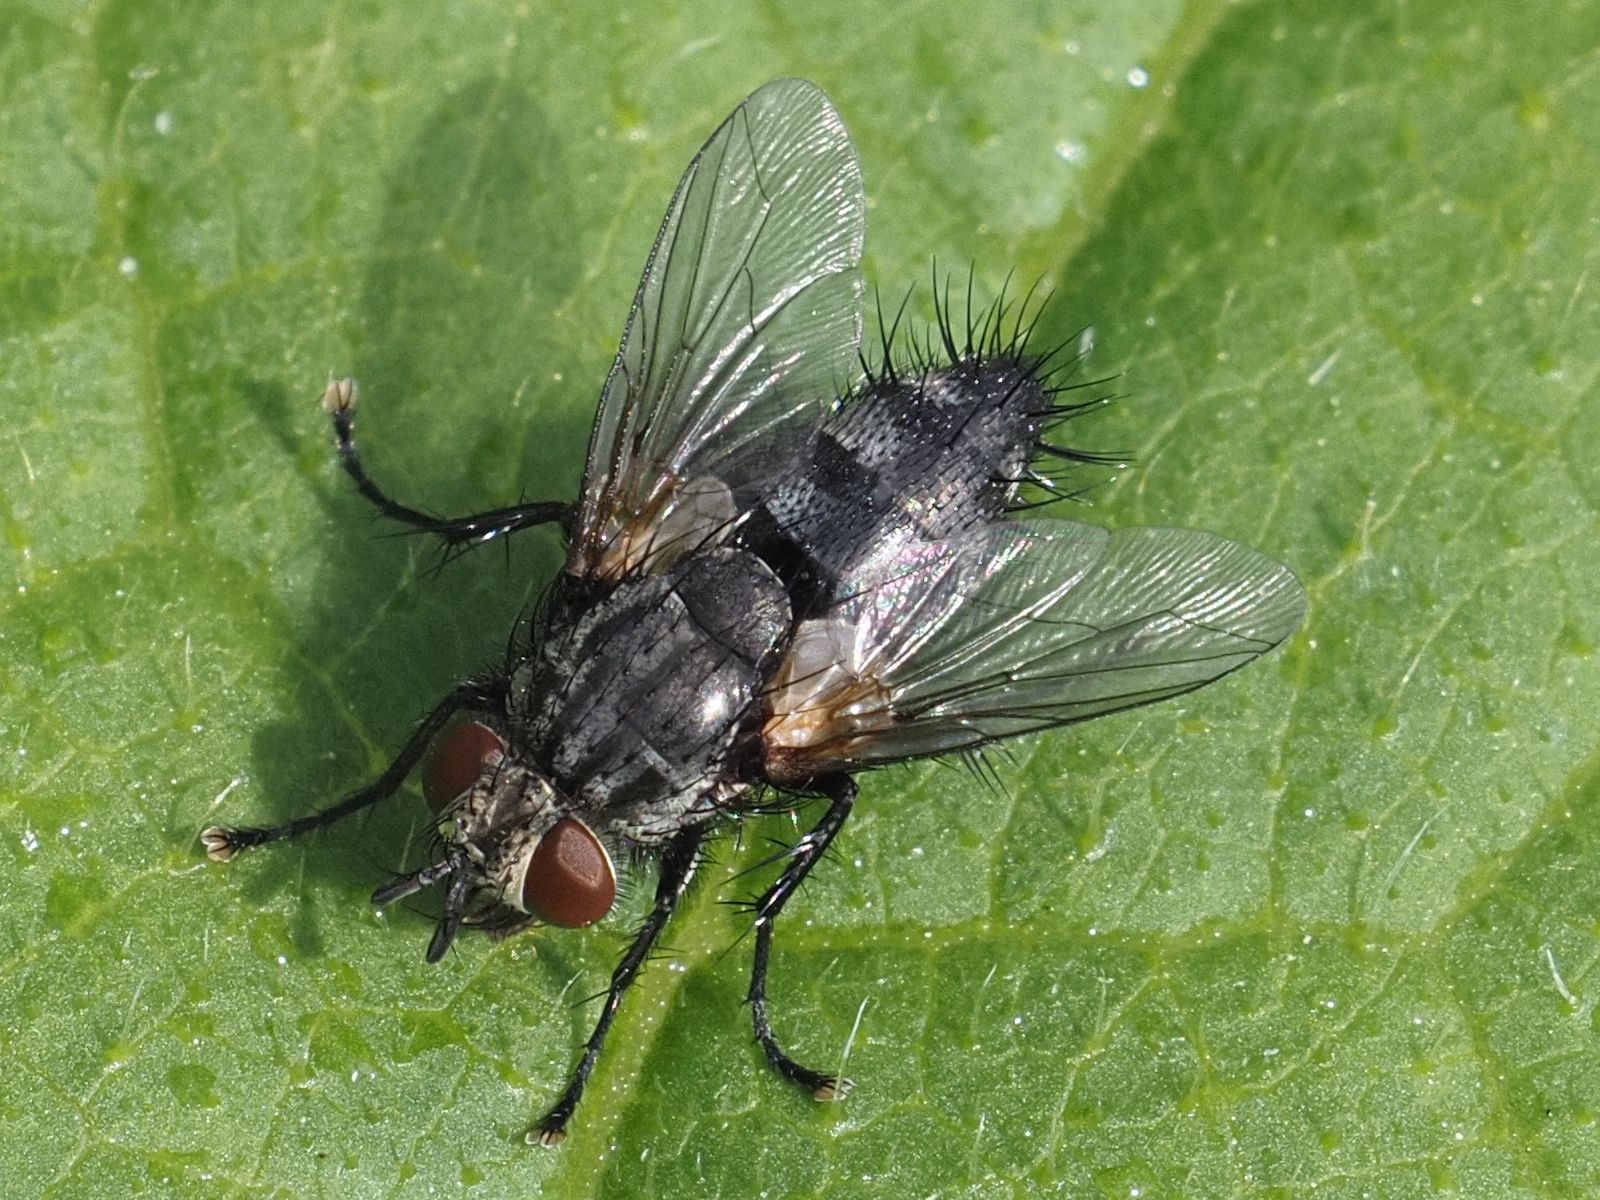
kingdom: Animalia
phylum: Arthropoda
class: Insecta
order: Diptera
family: Tachinidae
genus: Voria
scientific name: Voria ruralis
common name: Parasitic fly
